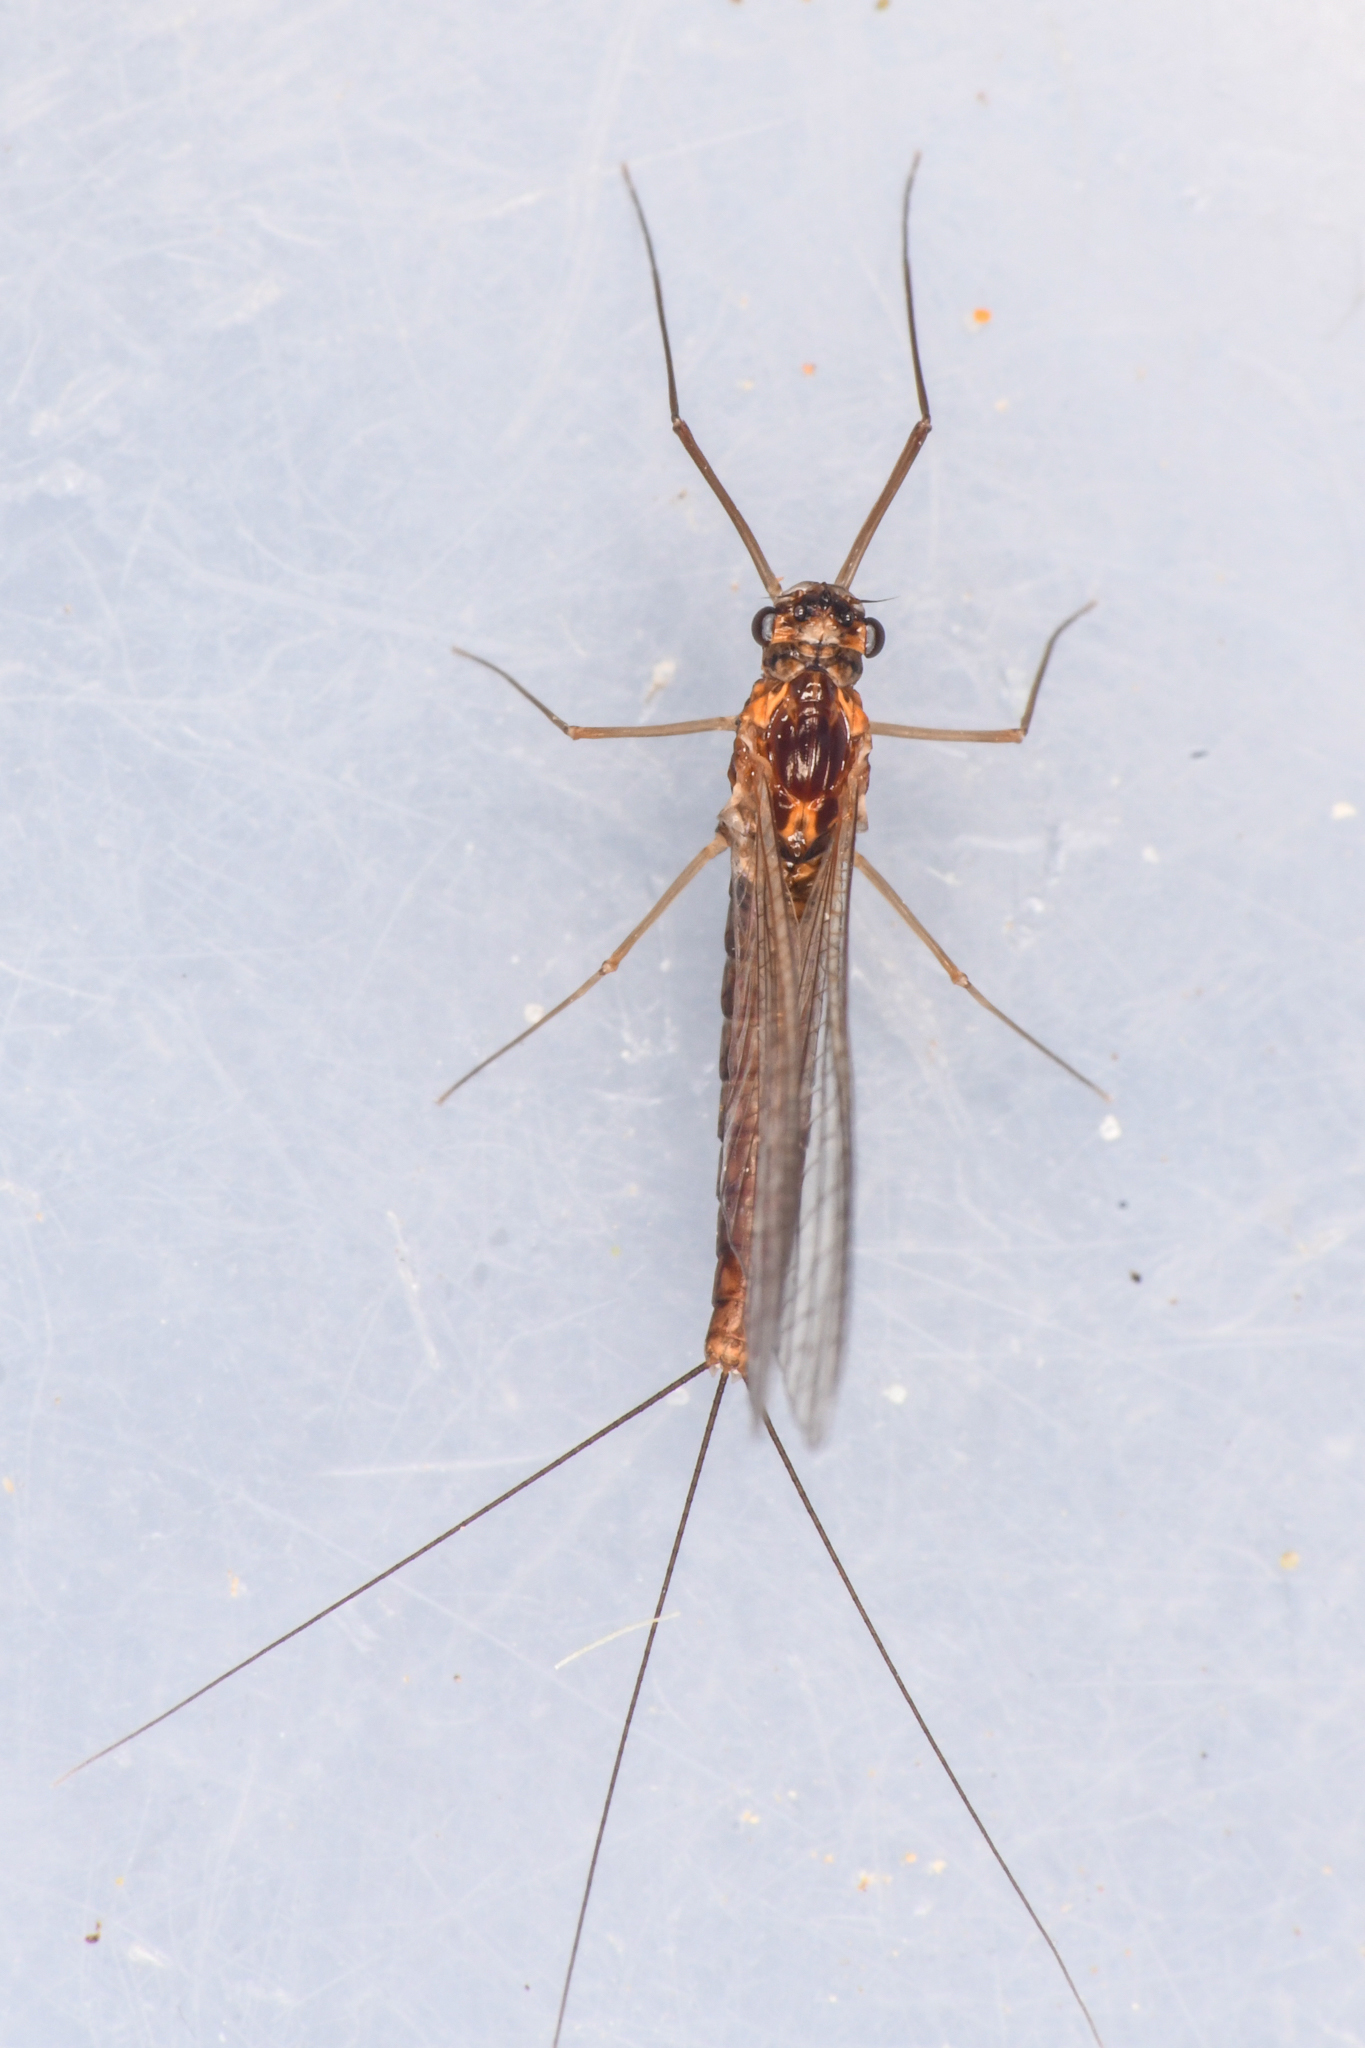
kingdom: Animalia
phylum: Arthropoda
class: Insecta
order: Ephemeroptera
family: Leptophlebiidae
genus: Neoleptophlebia
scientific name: Neoleptophlebia heteronea
